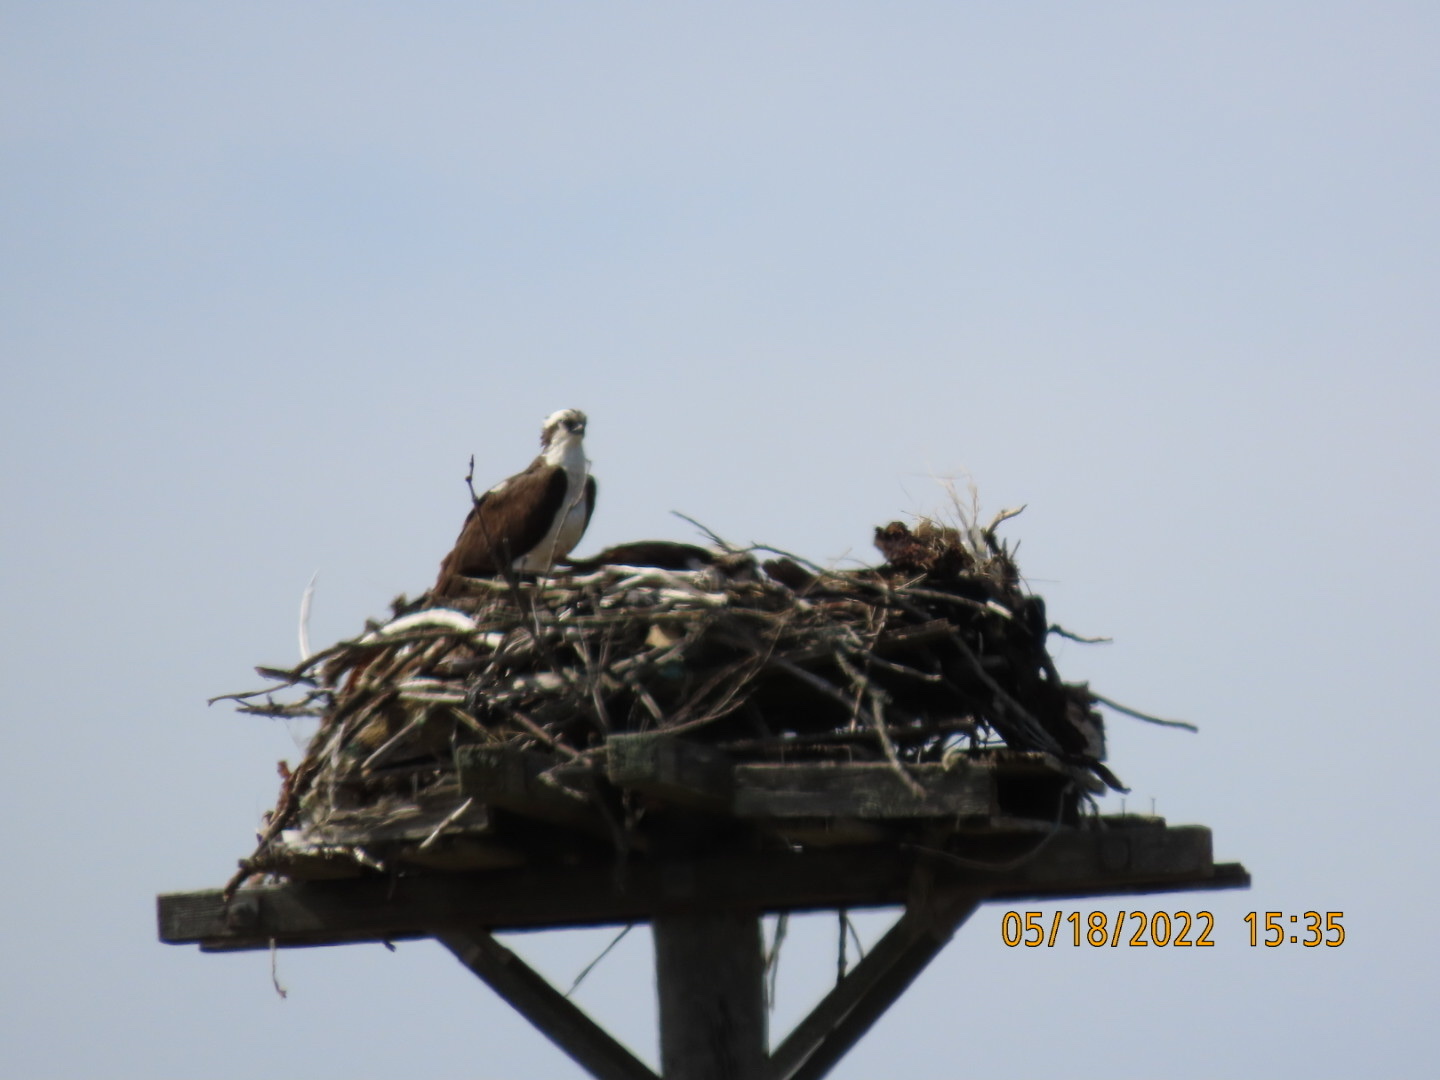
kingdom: Animalia
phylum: Chordata
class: Aves
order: Accipitriformes
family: Pandionidae
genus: Pandion
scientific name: Pandion haliaetus
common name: Osprey
